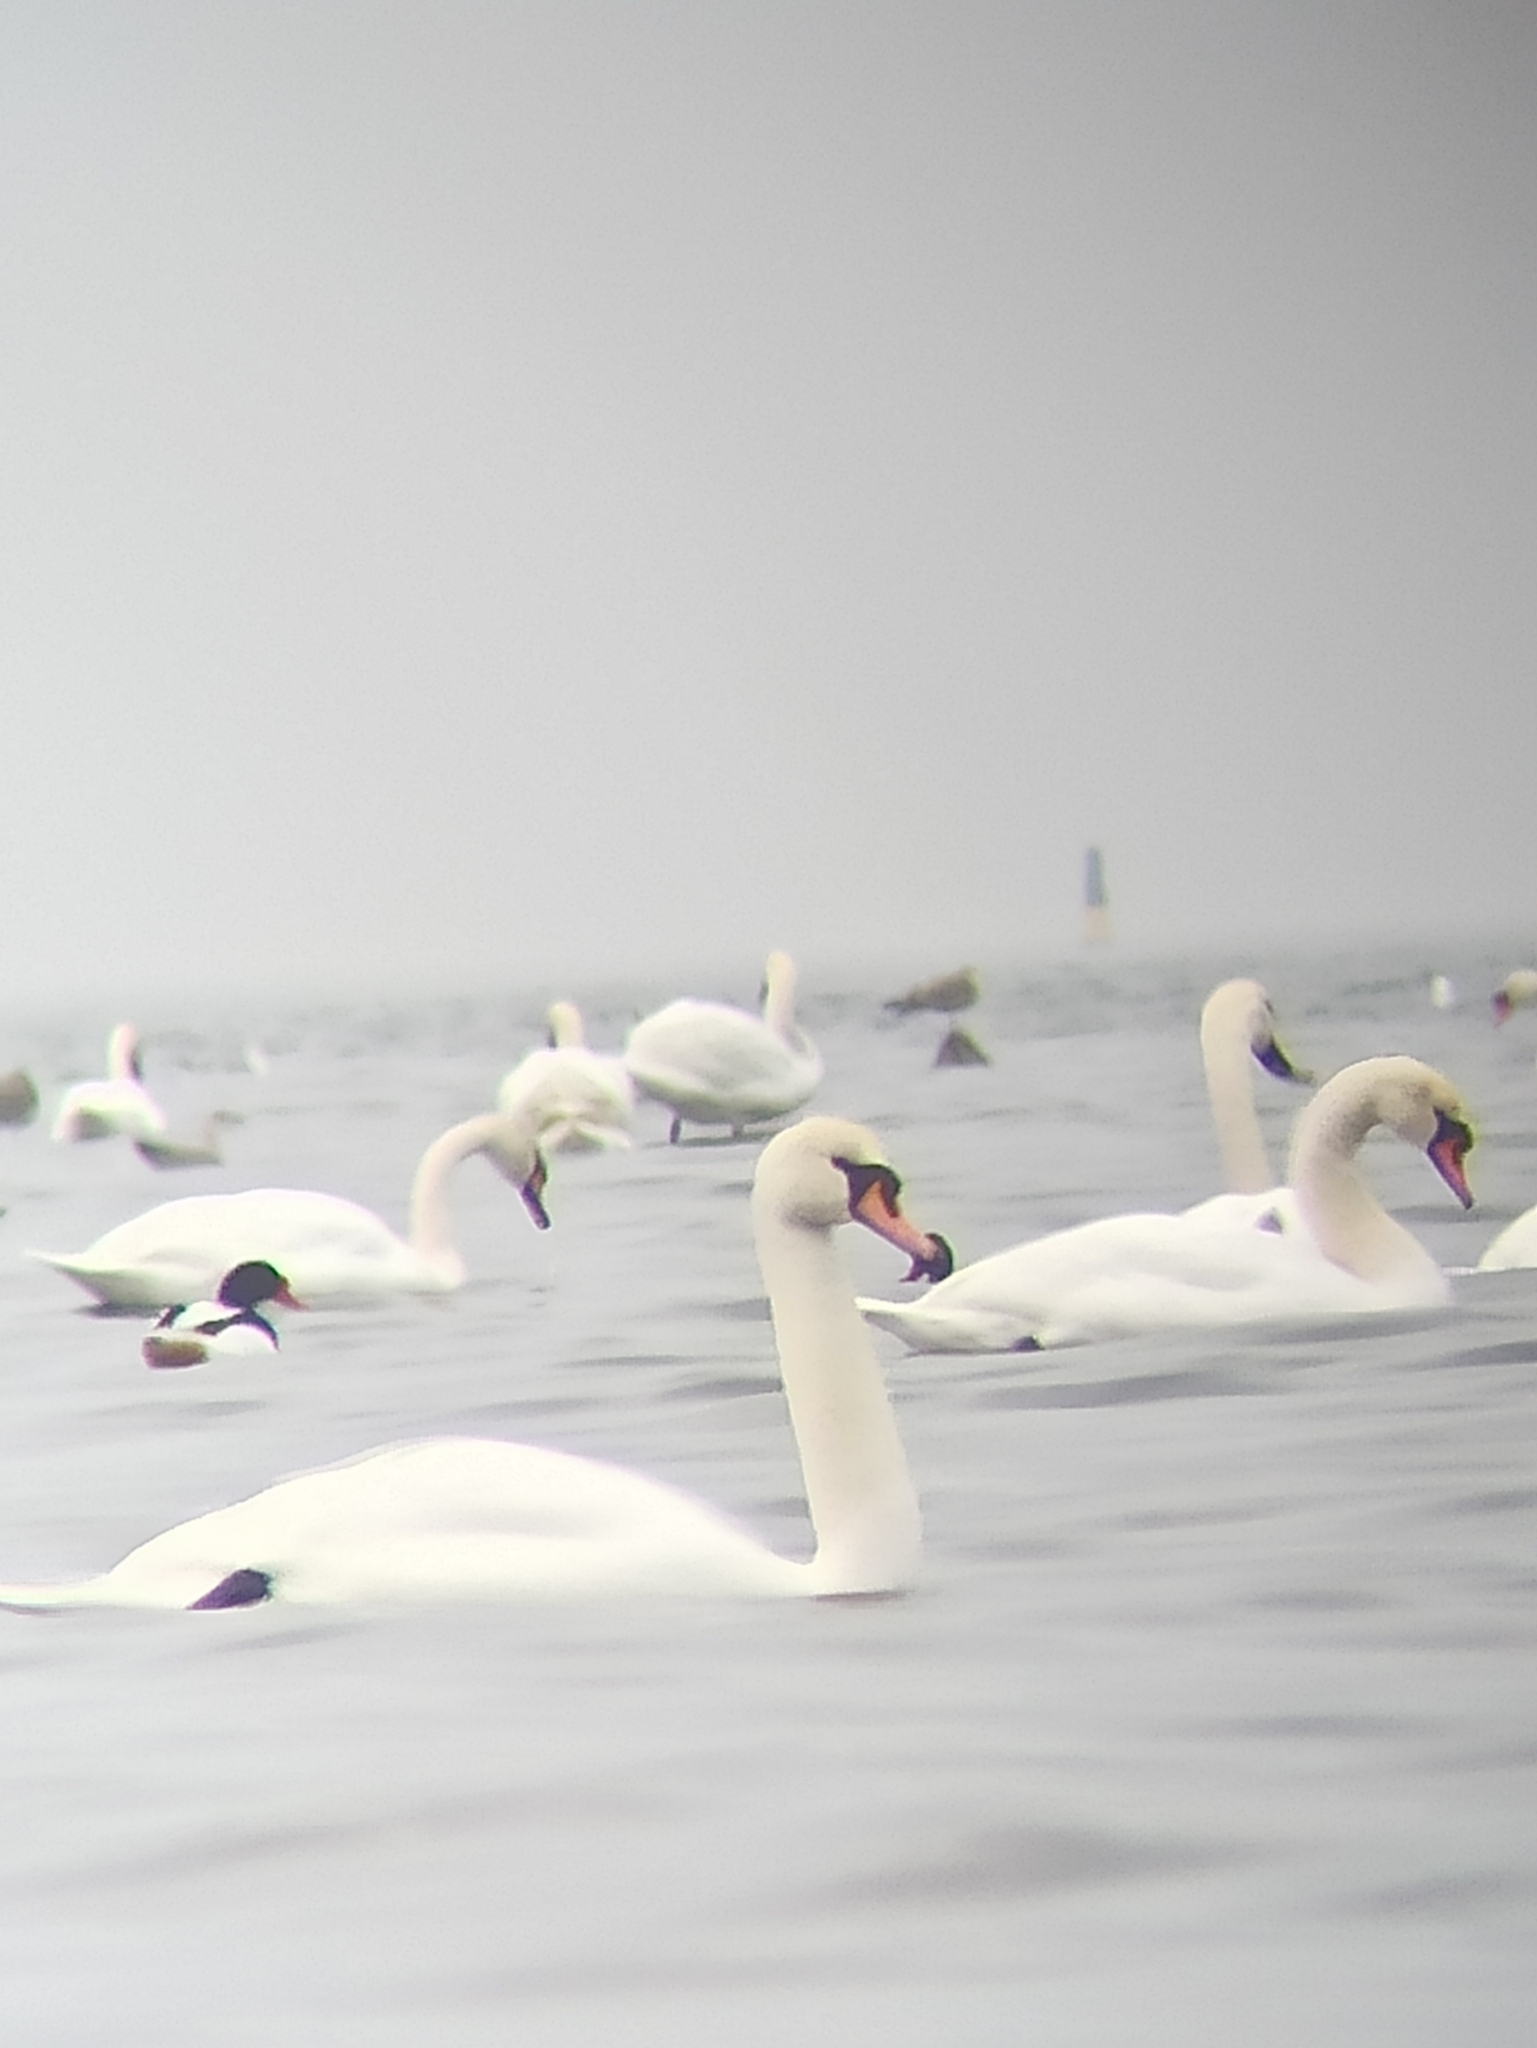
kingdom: Animalia
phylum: Chordata
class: Aves
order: Anseriformes
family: Anatidae
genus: Cygnus
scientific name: Cygnus olor
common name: Mute swan
